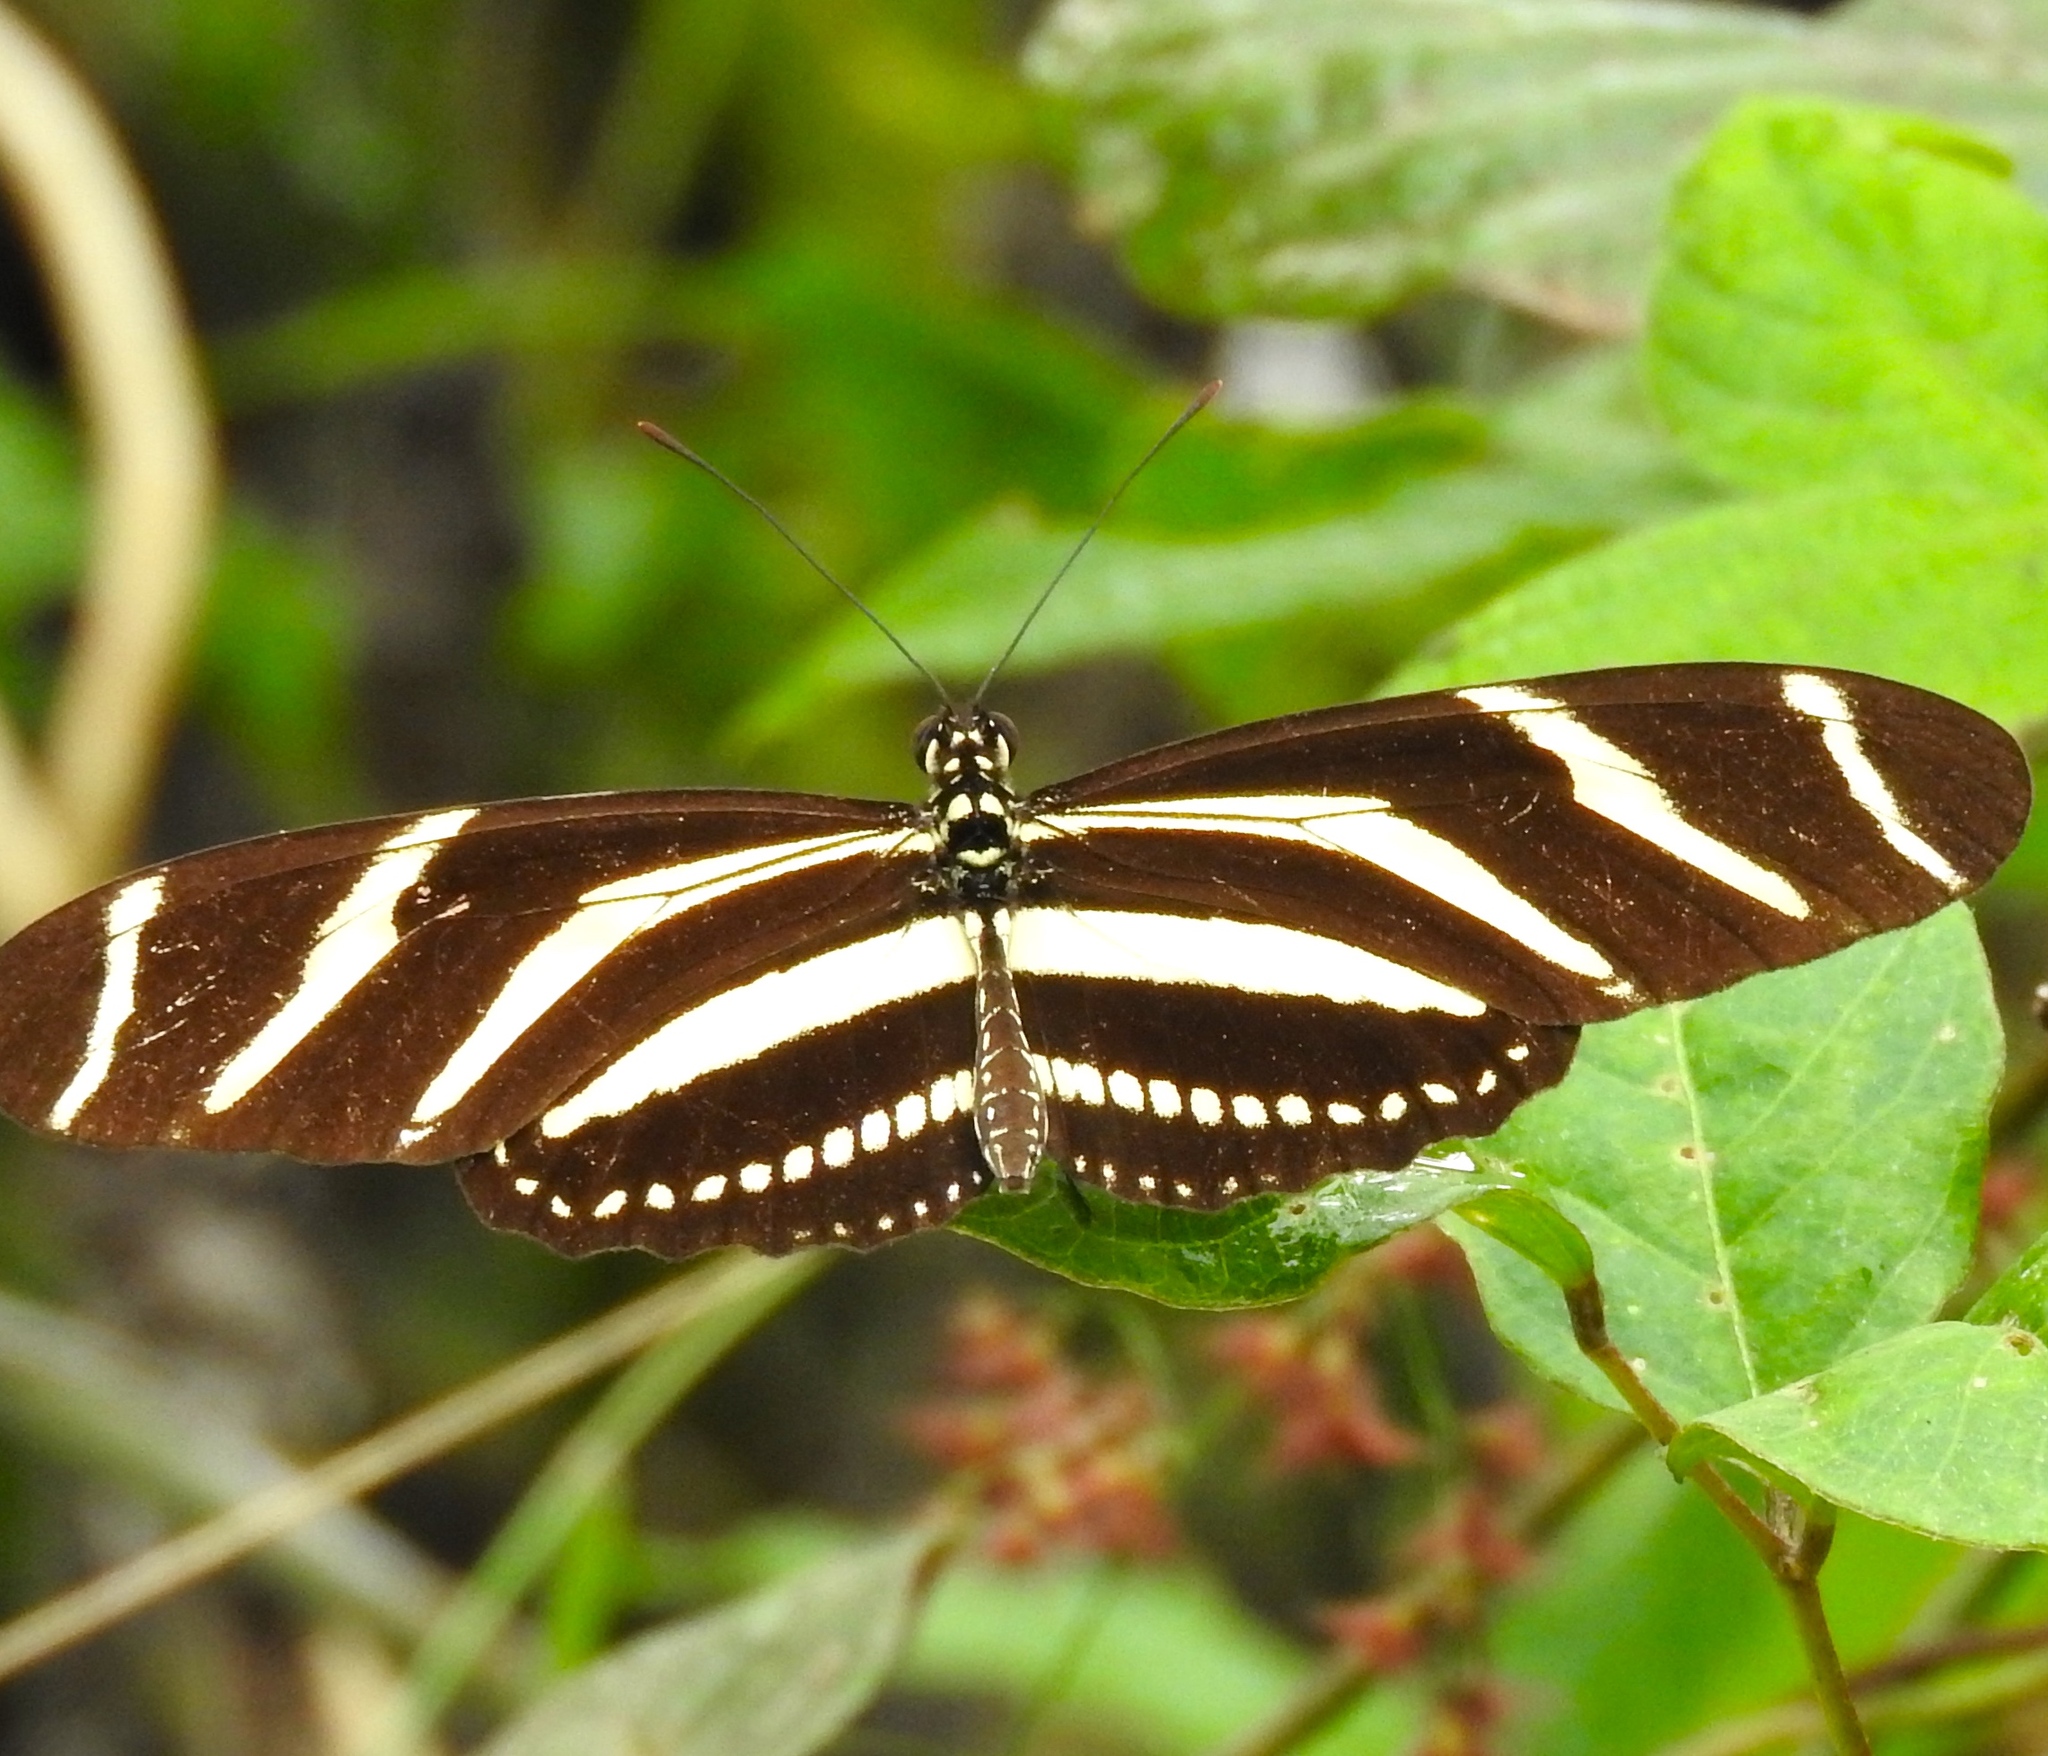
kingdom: Animalia
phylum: Arthropoda
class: Insecta
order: Lepidoptera
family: Nymphalidae
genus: Heliconius
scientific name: Heliconius charithonia
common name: Zebra long wing
